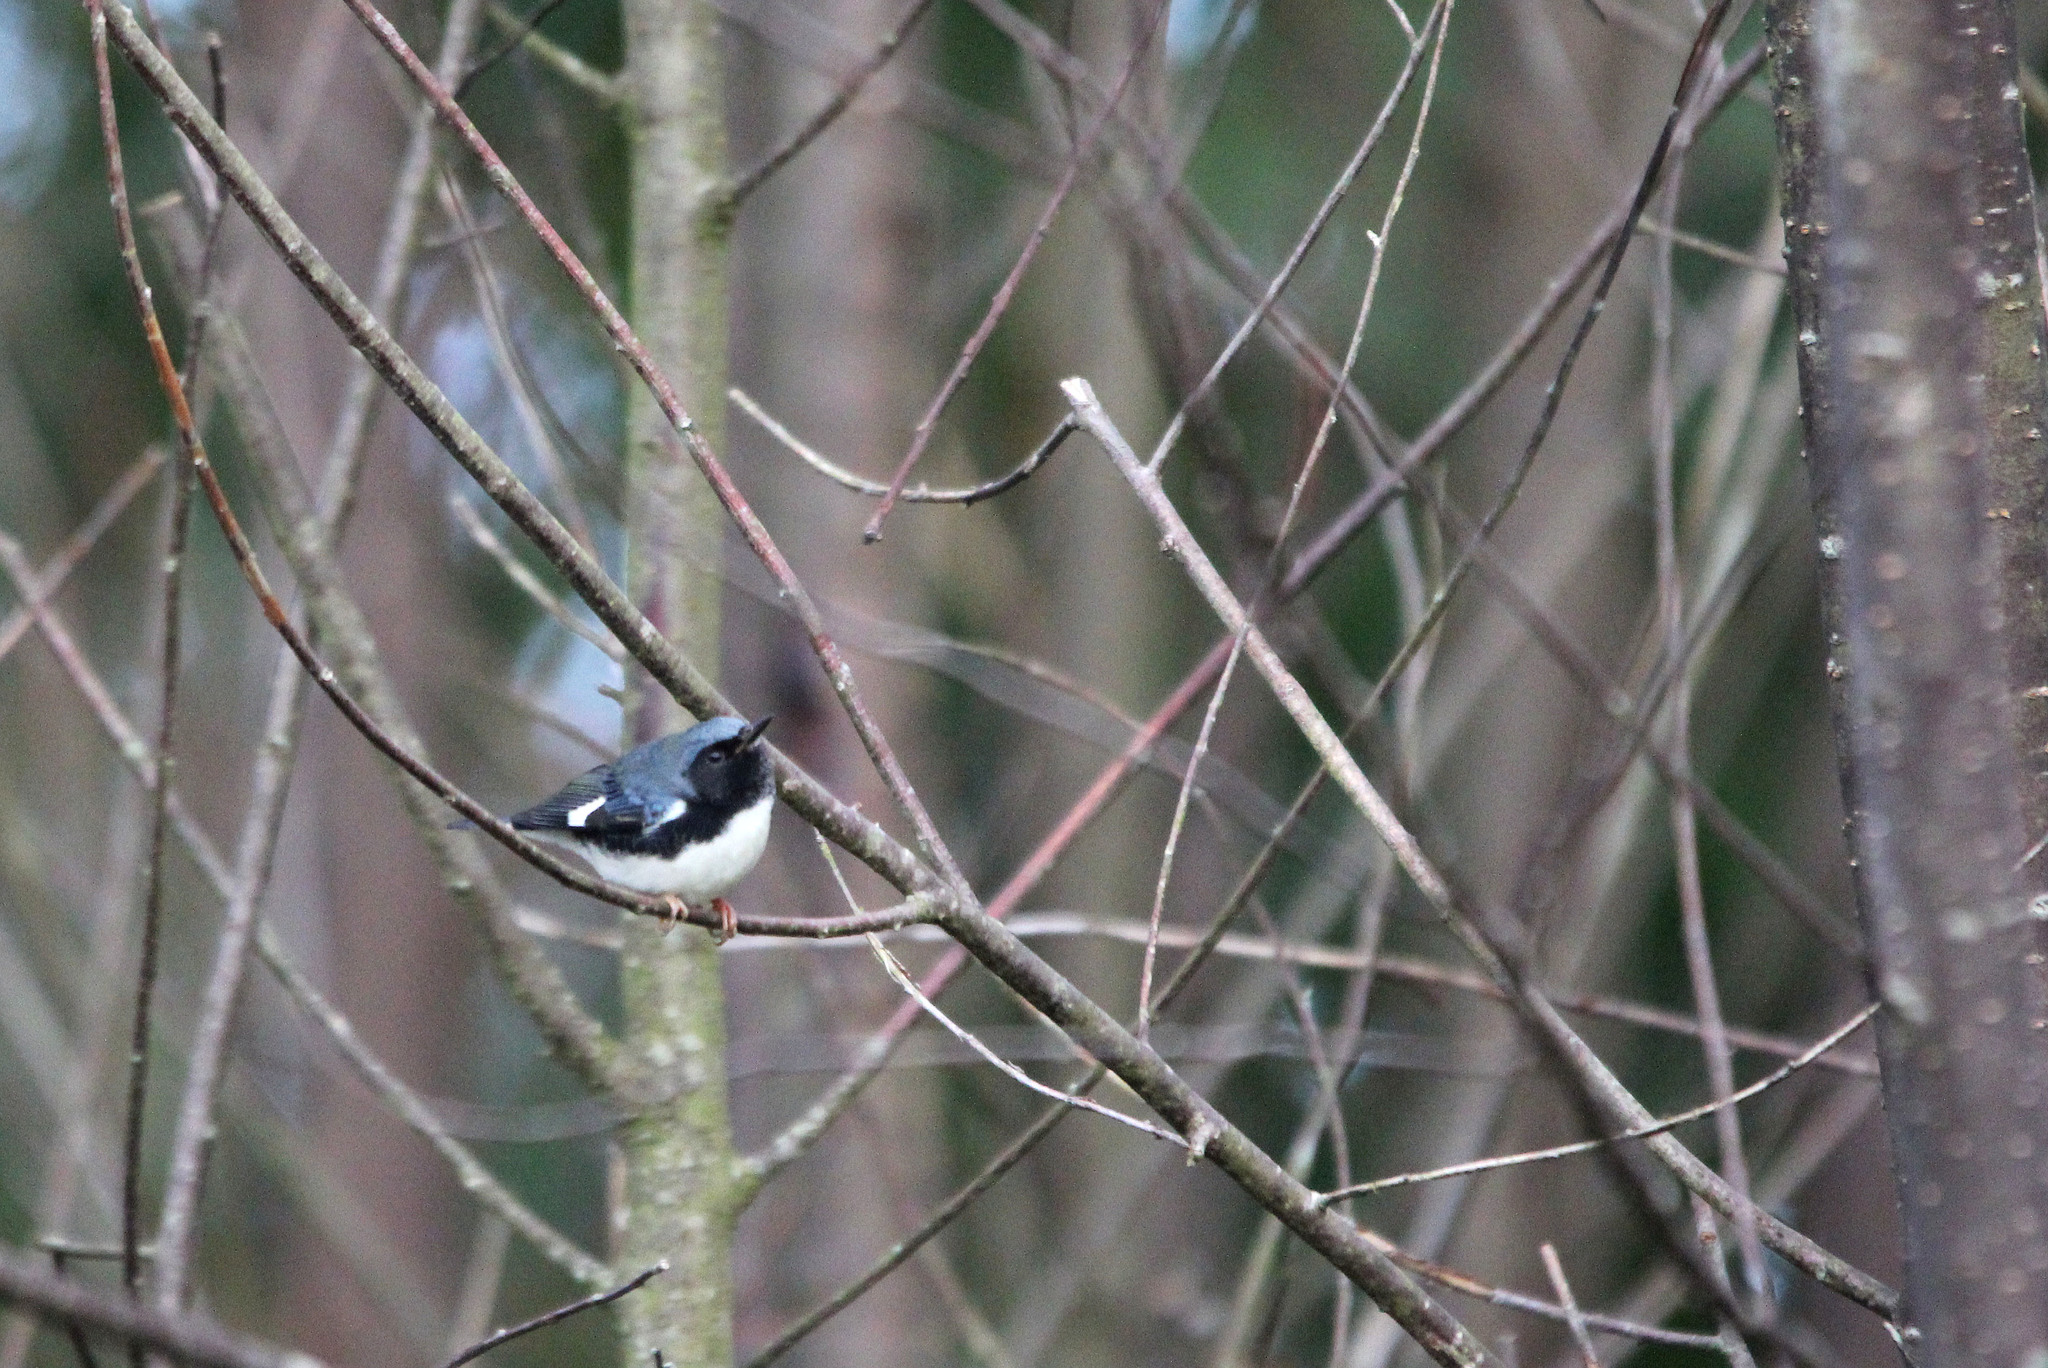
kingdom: Animalia
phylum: Chordata
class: Aves
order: Passeriformes
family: Parulidae
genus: Setophaga
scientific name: Setophaga caerulescens
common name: Black-throated blue warbler
